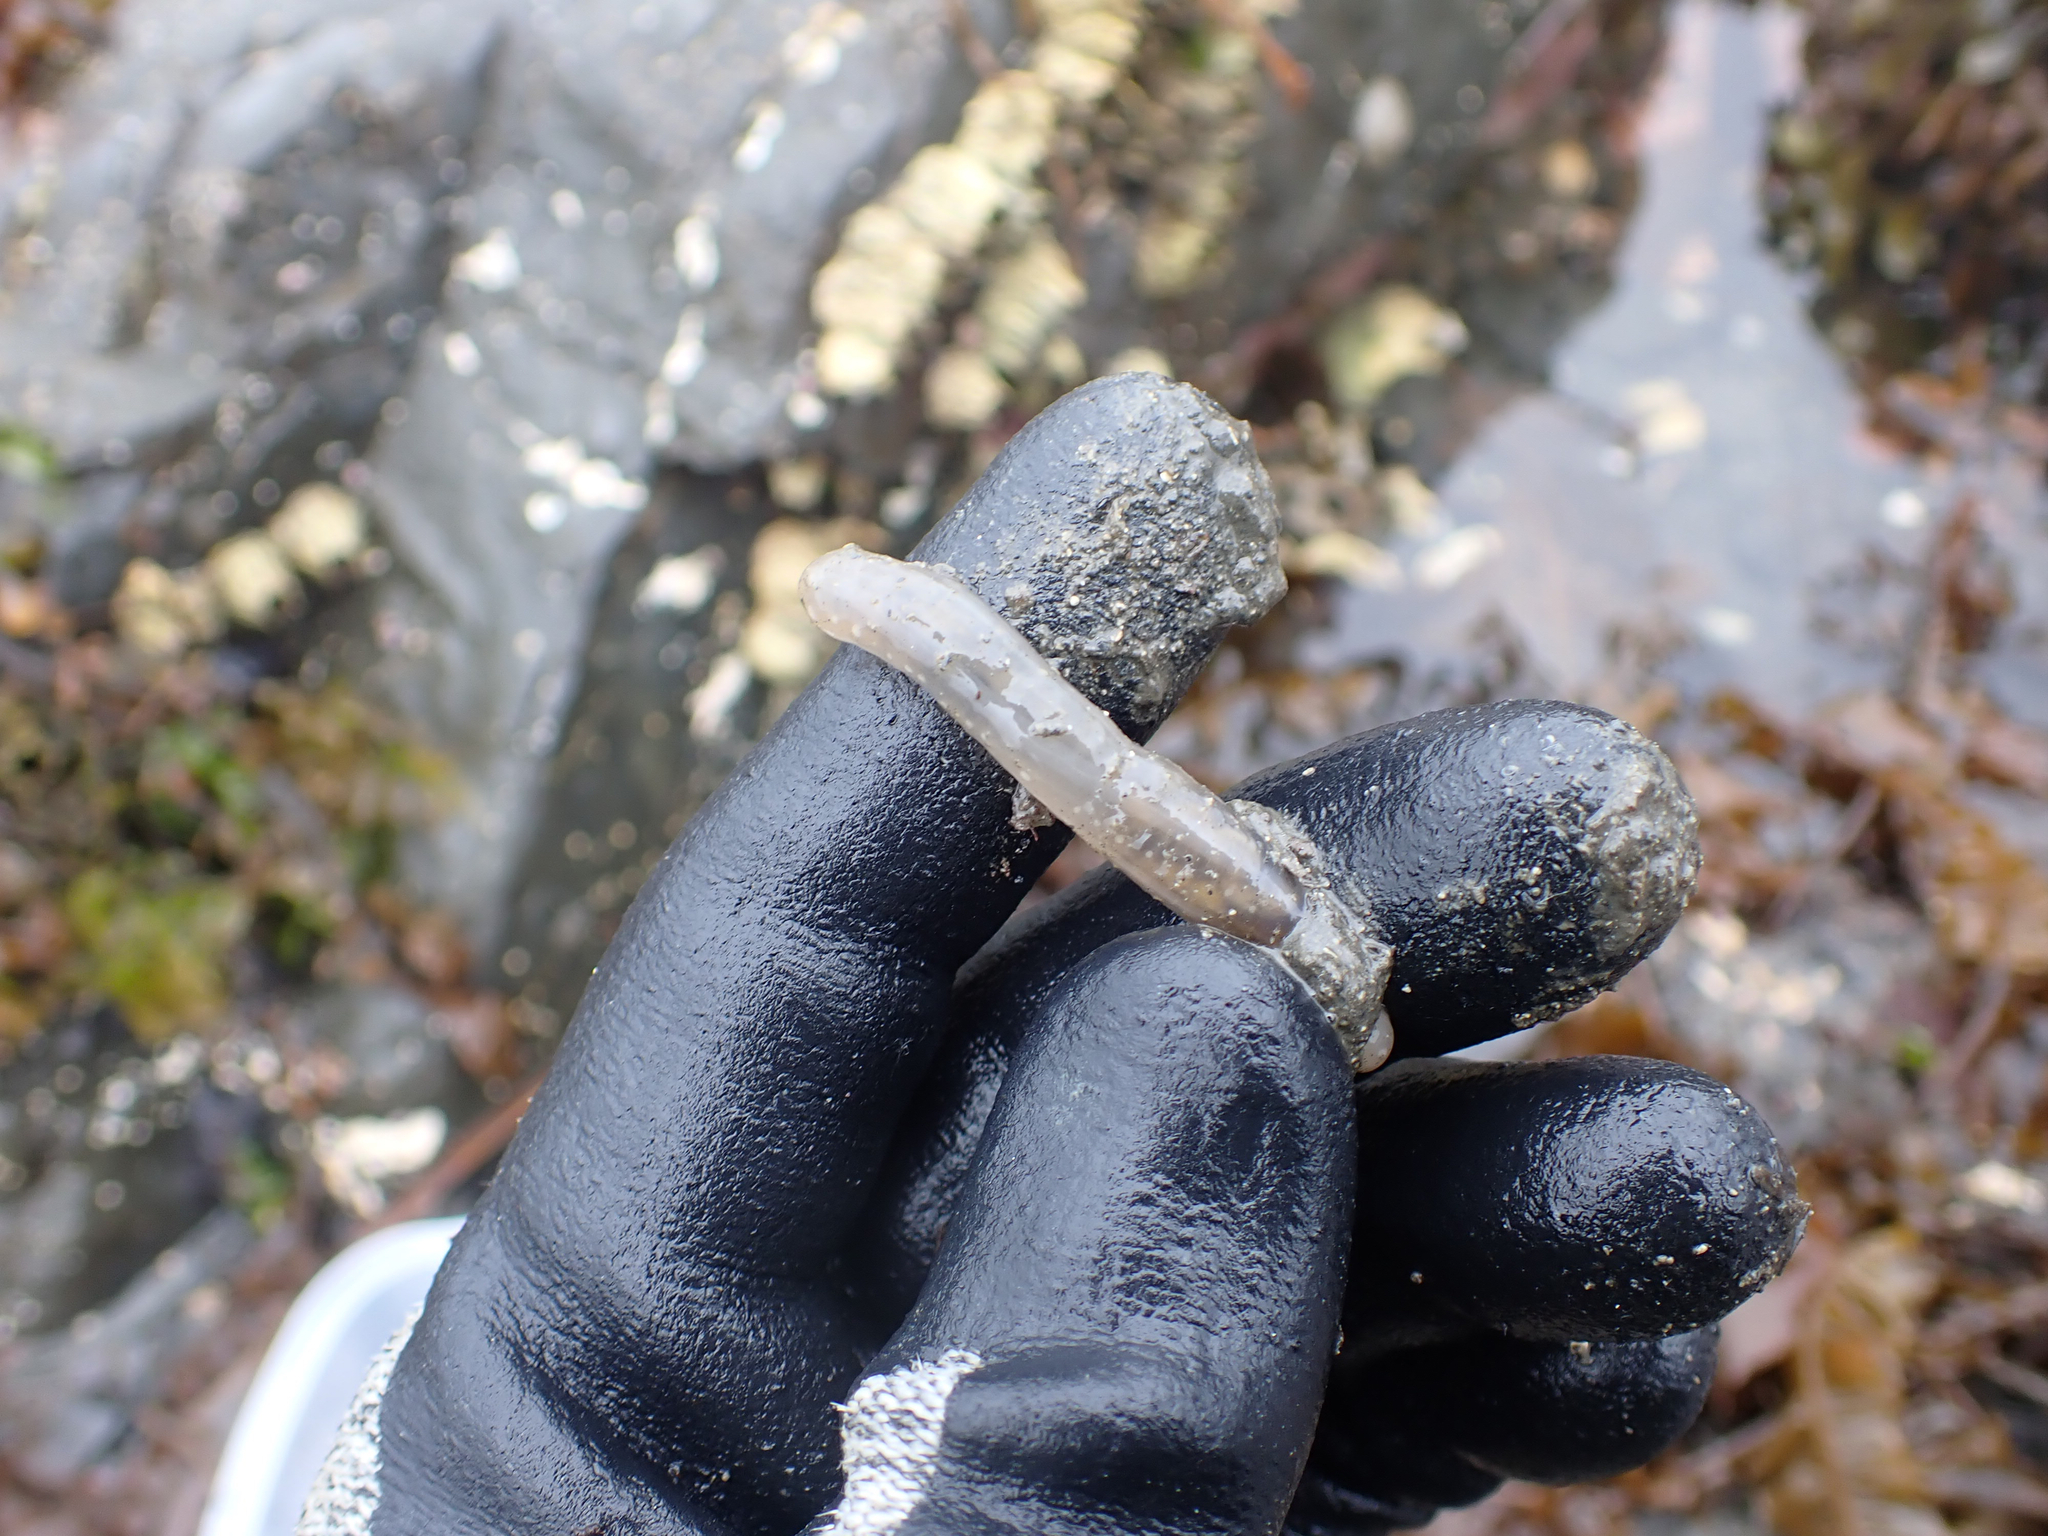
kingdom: Animalia
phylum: Echinodermata
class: Holothuroidea
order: Apodida
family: Chiridotidae
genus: Chiridota
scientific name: Chiridota discolor
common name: Jellybean footless sea cucumber
